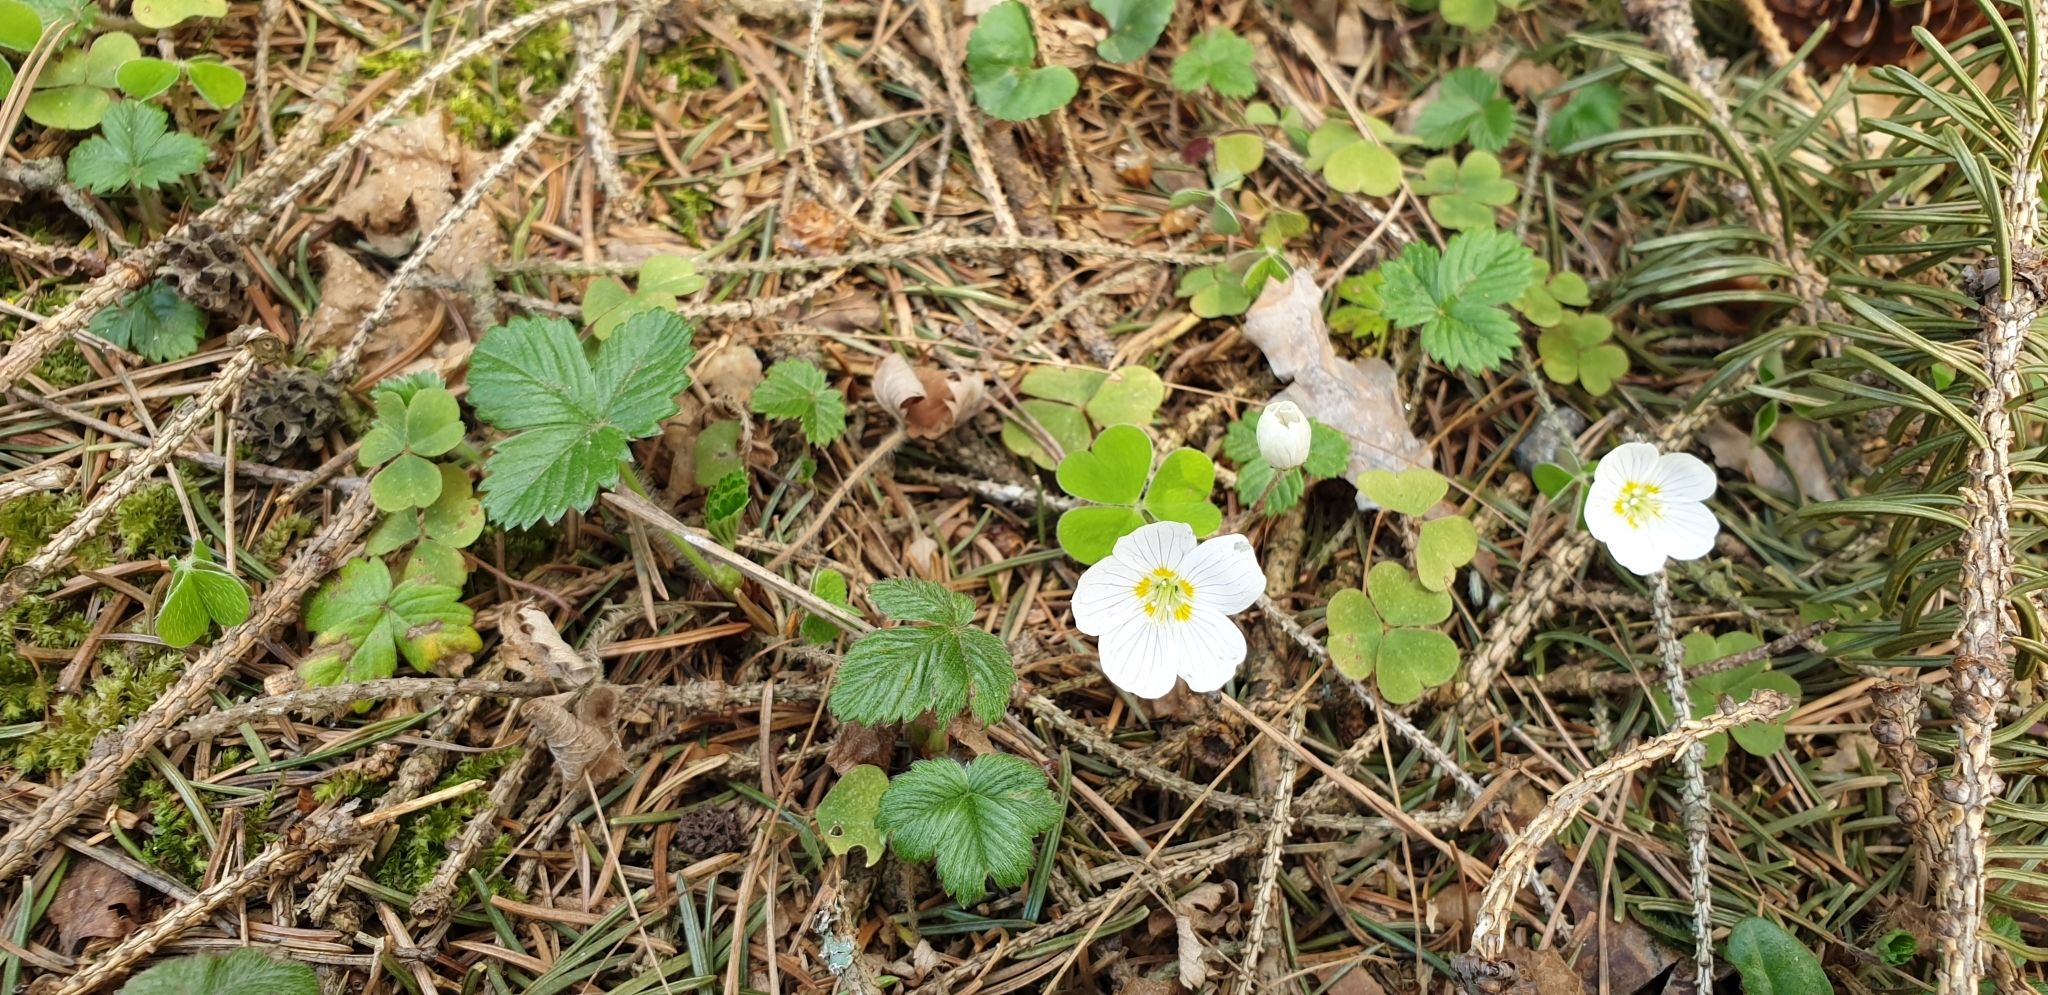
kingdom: Plantae
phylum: Tracheophyta
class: Magnoliopsida
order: Oxalidales
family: Oxalidaceae
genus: Oxalis
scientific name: Oxalis acetosella
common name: Wood-sorrel
